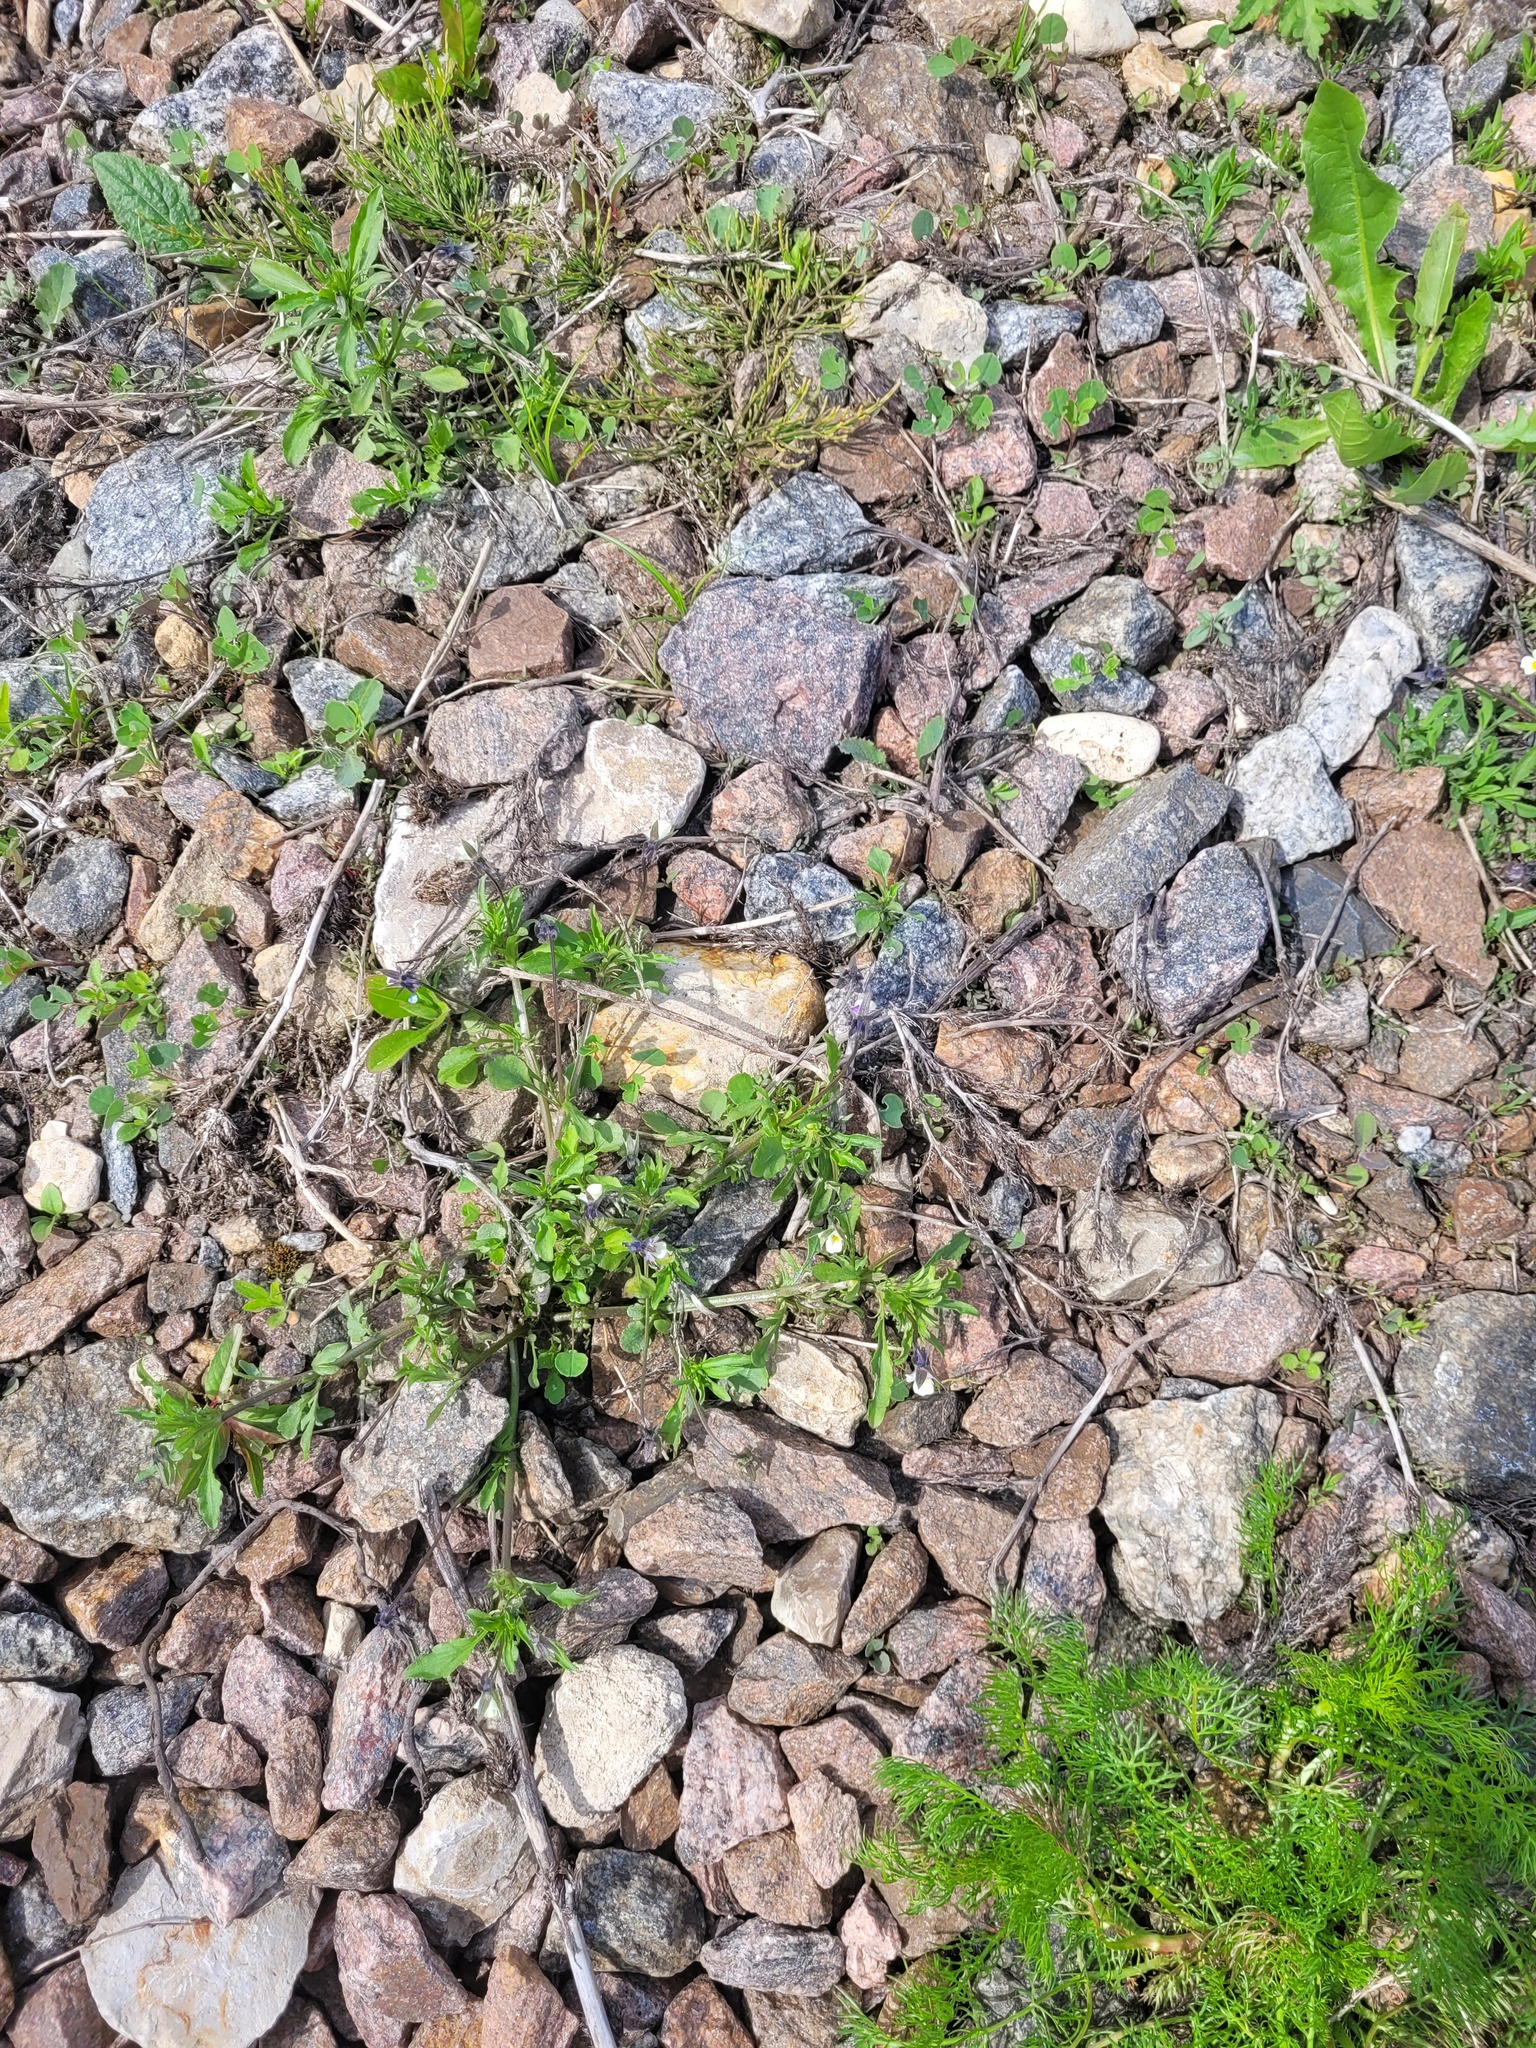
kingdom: Plantae
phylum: Tracheophyta
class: Magnoliopsida
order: Malpighiales
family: Violaceae
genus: Viola
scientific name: Viola arvensis
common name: Field pansy
